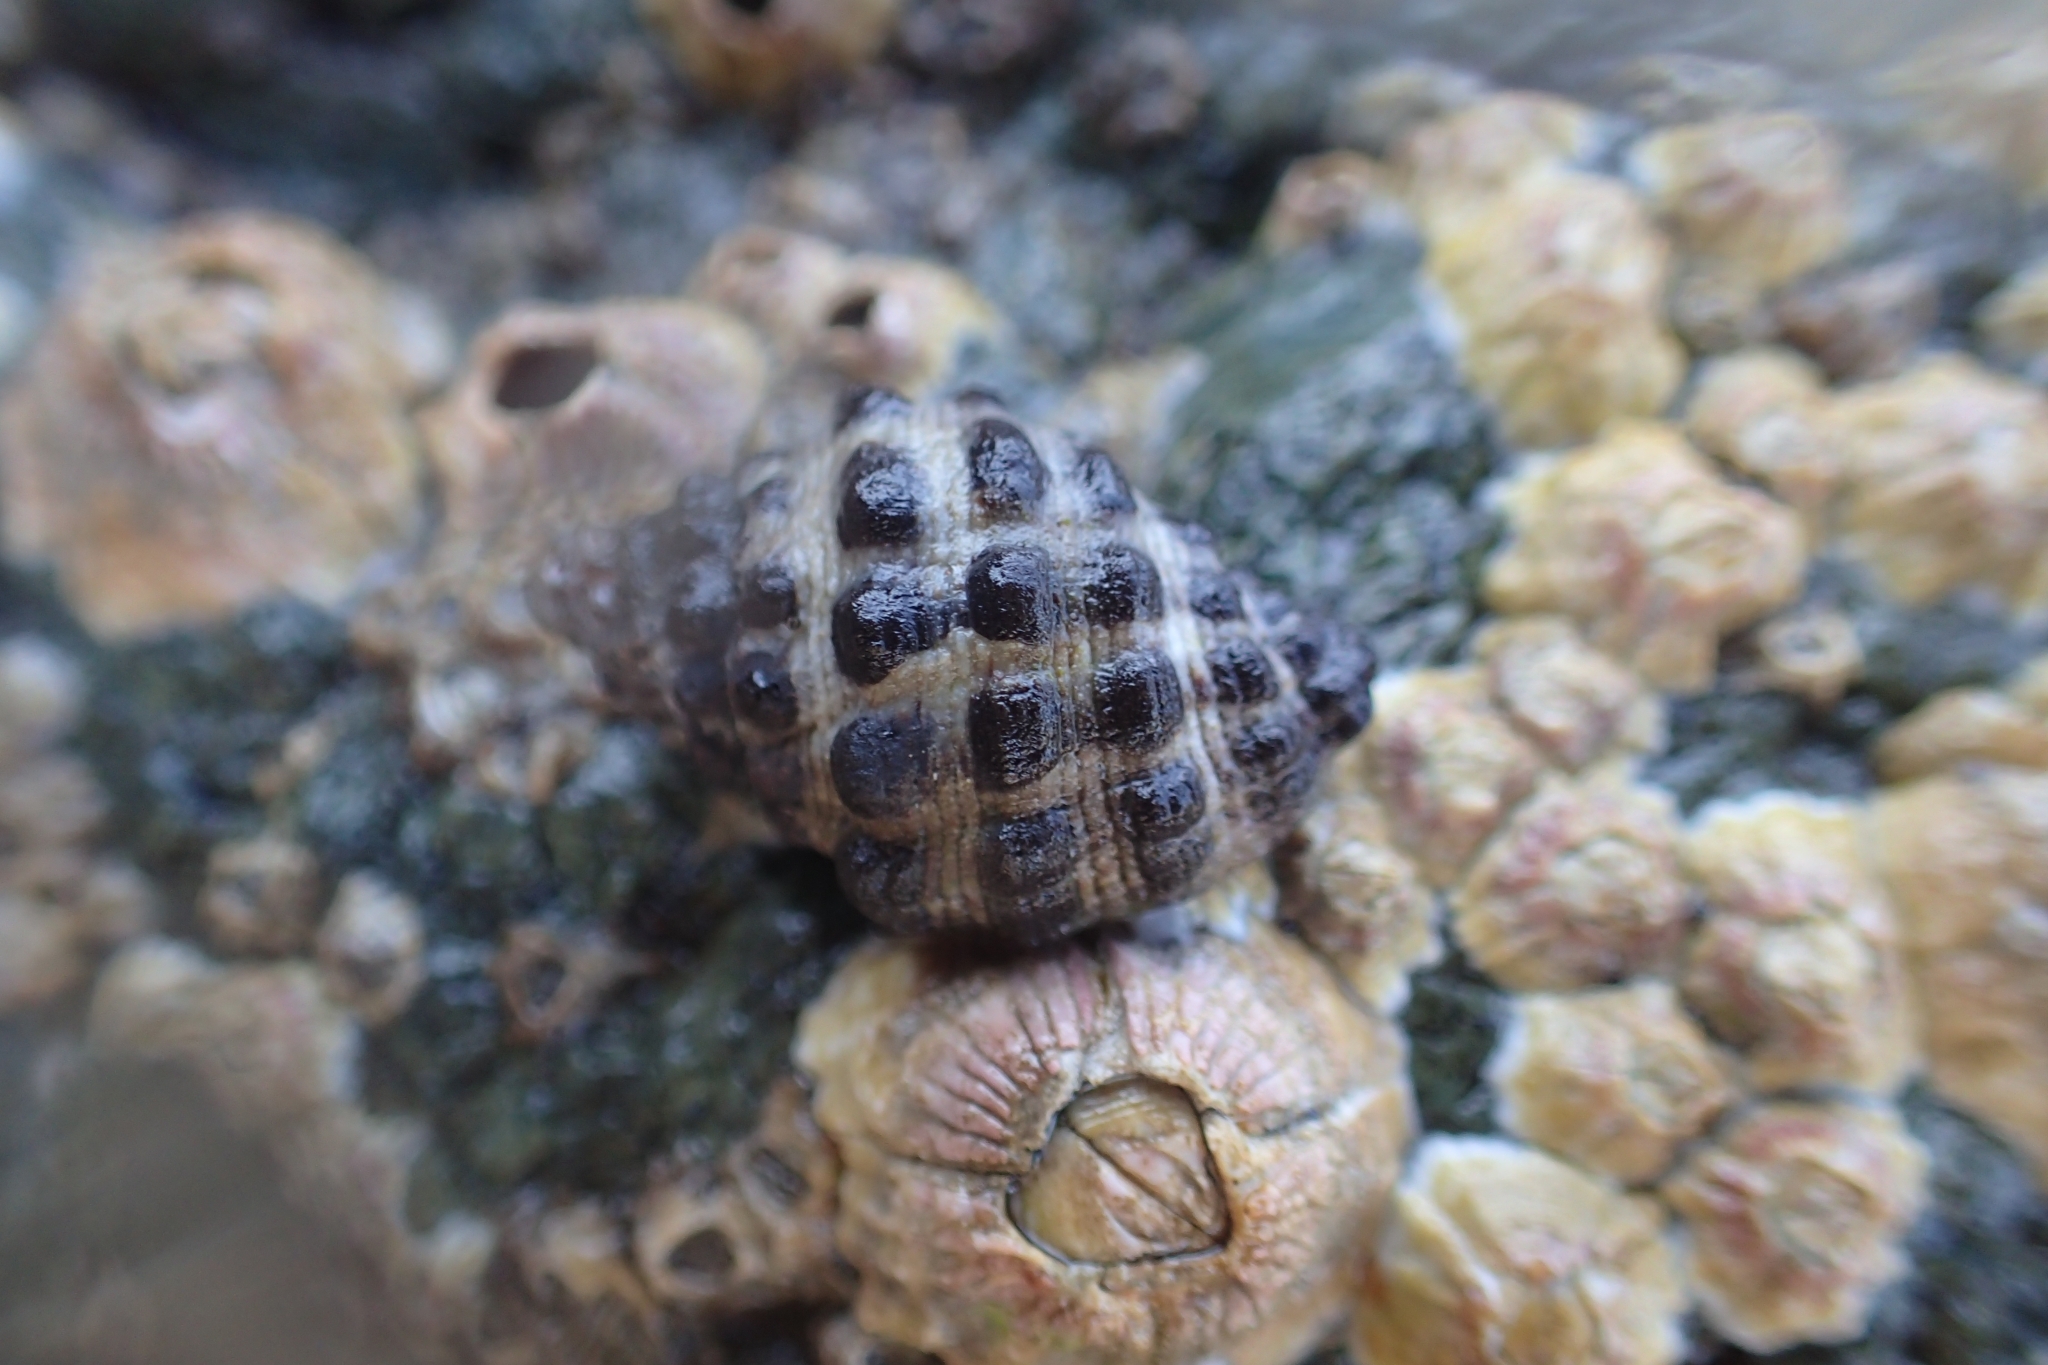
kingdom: Animalia
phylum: Mollusca
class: Gastropoda
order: Neogastropoda
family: Muricidae
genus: Tenguella
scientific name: Tenguella marginalba
